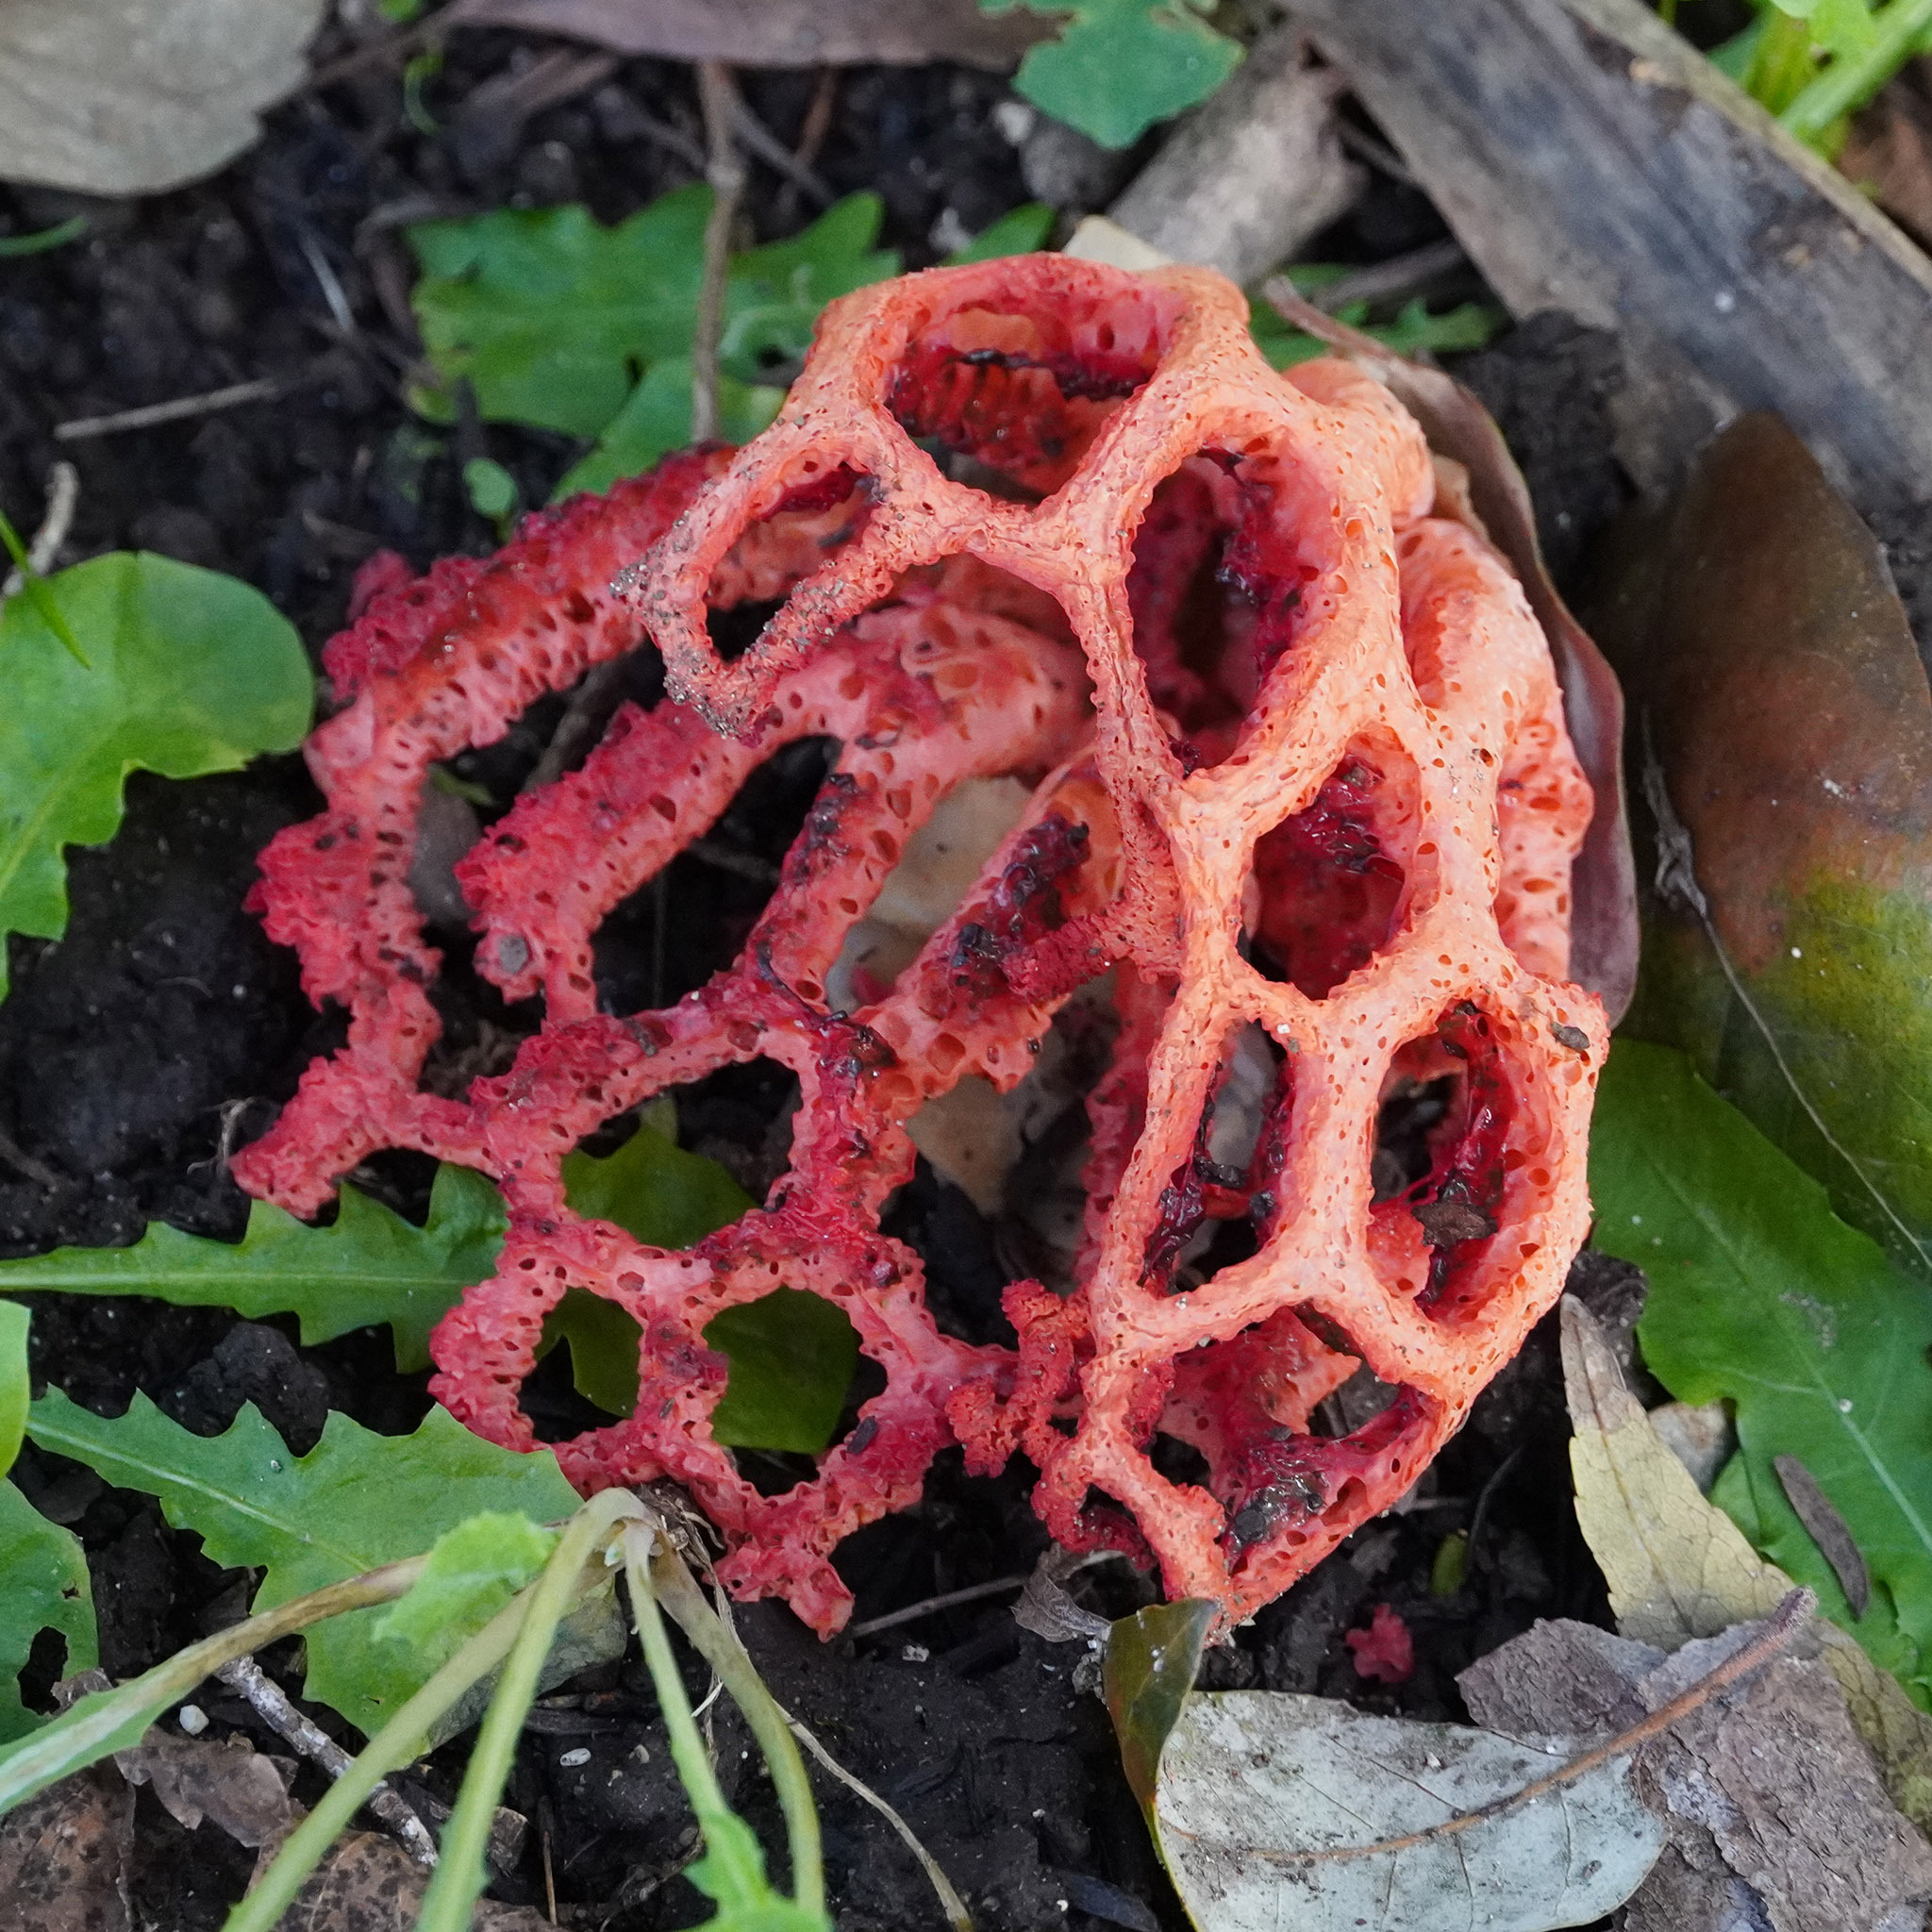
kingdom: Fungi
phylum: Basidiomycota
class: Agaricomycetes
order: Phallales
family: Phallaceae
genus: Clathrus
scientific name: Clathrus ruber
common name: Red cage
